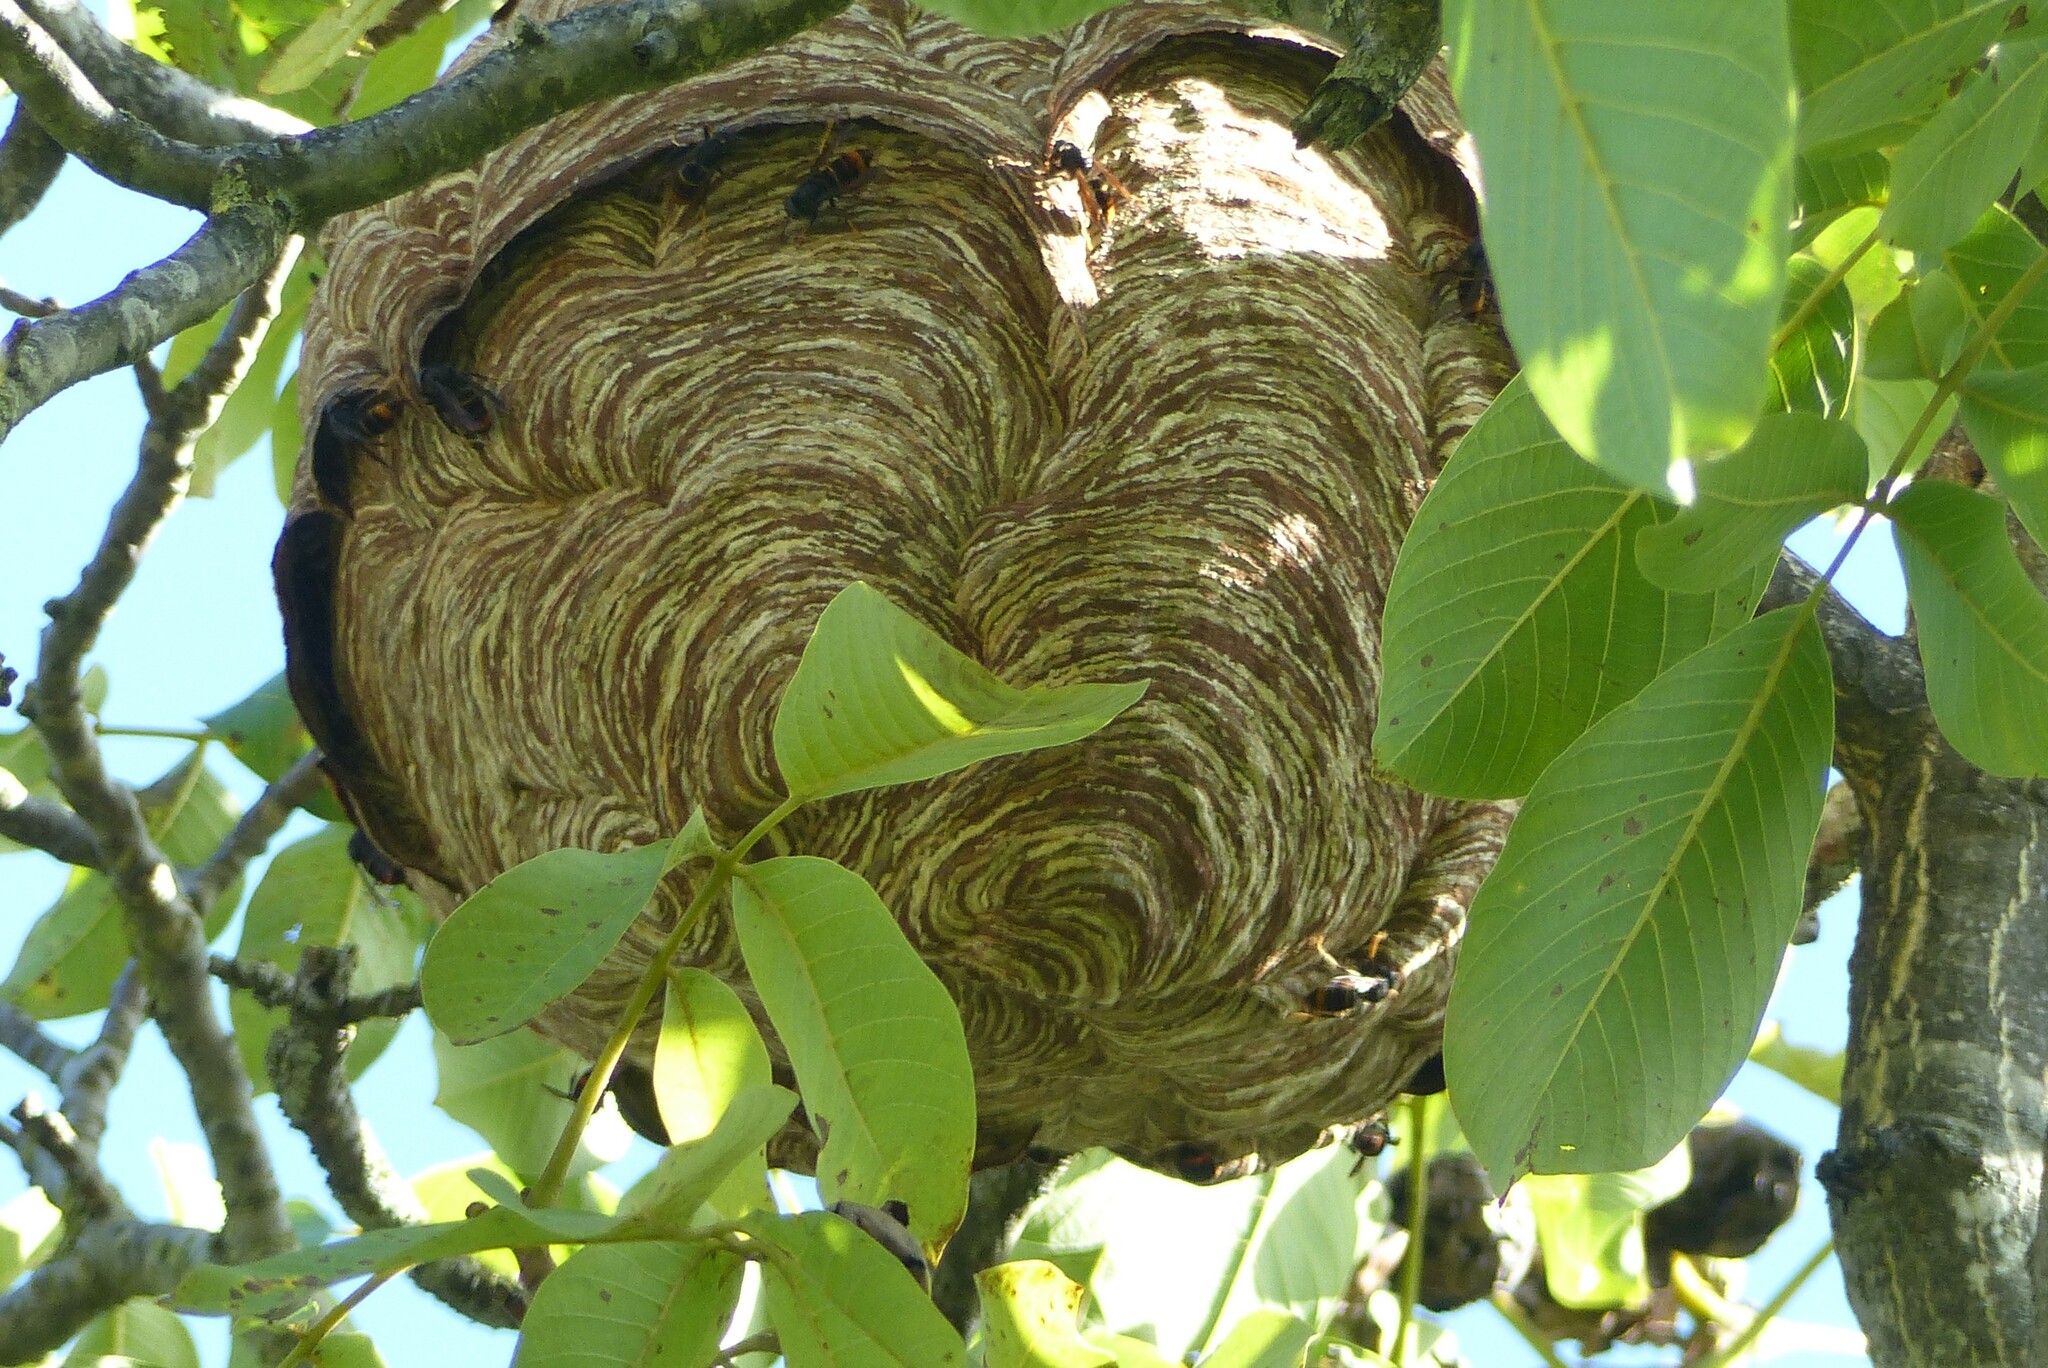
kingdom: Animalia
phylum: Arthropoda
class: Insecta
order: Hymenoptera
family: Vespidae
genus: Vespa
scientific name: Vespa velutina
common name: Asian hornet
